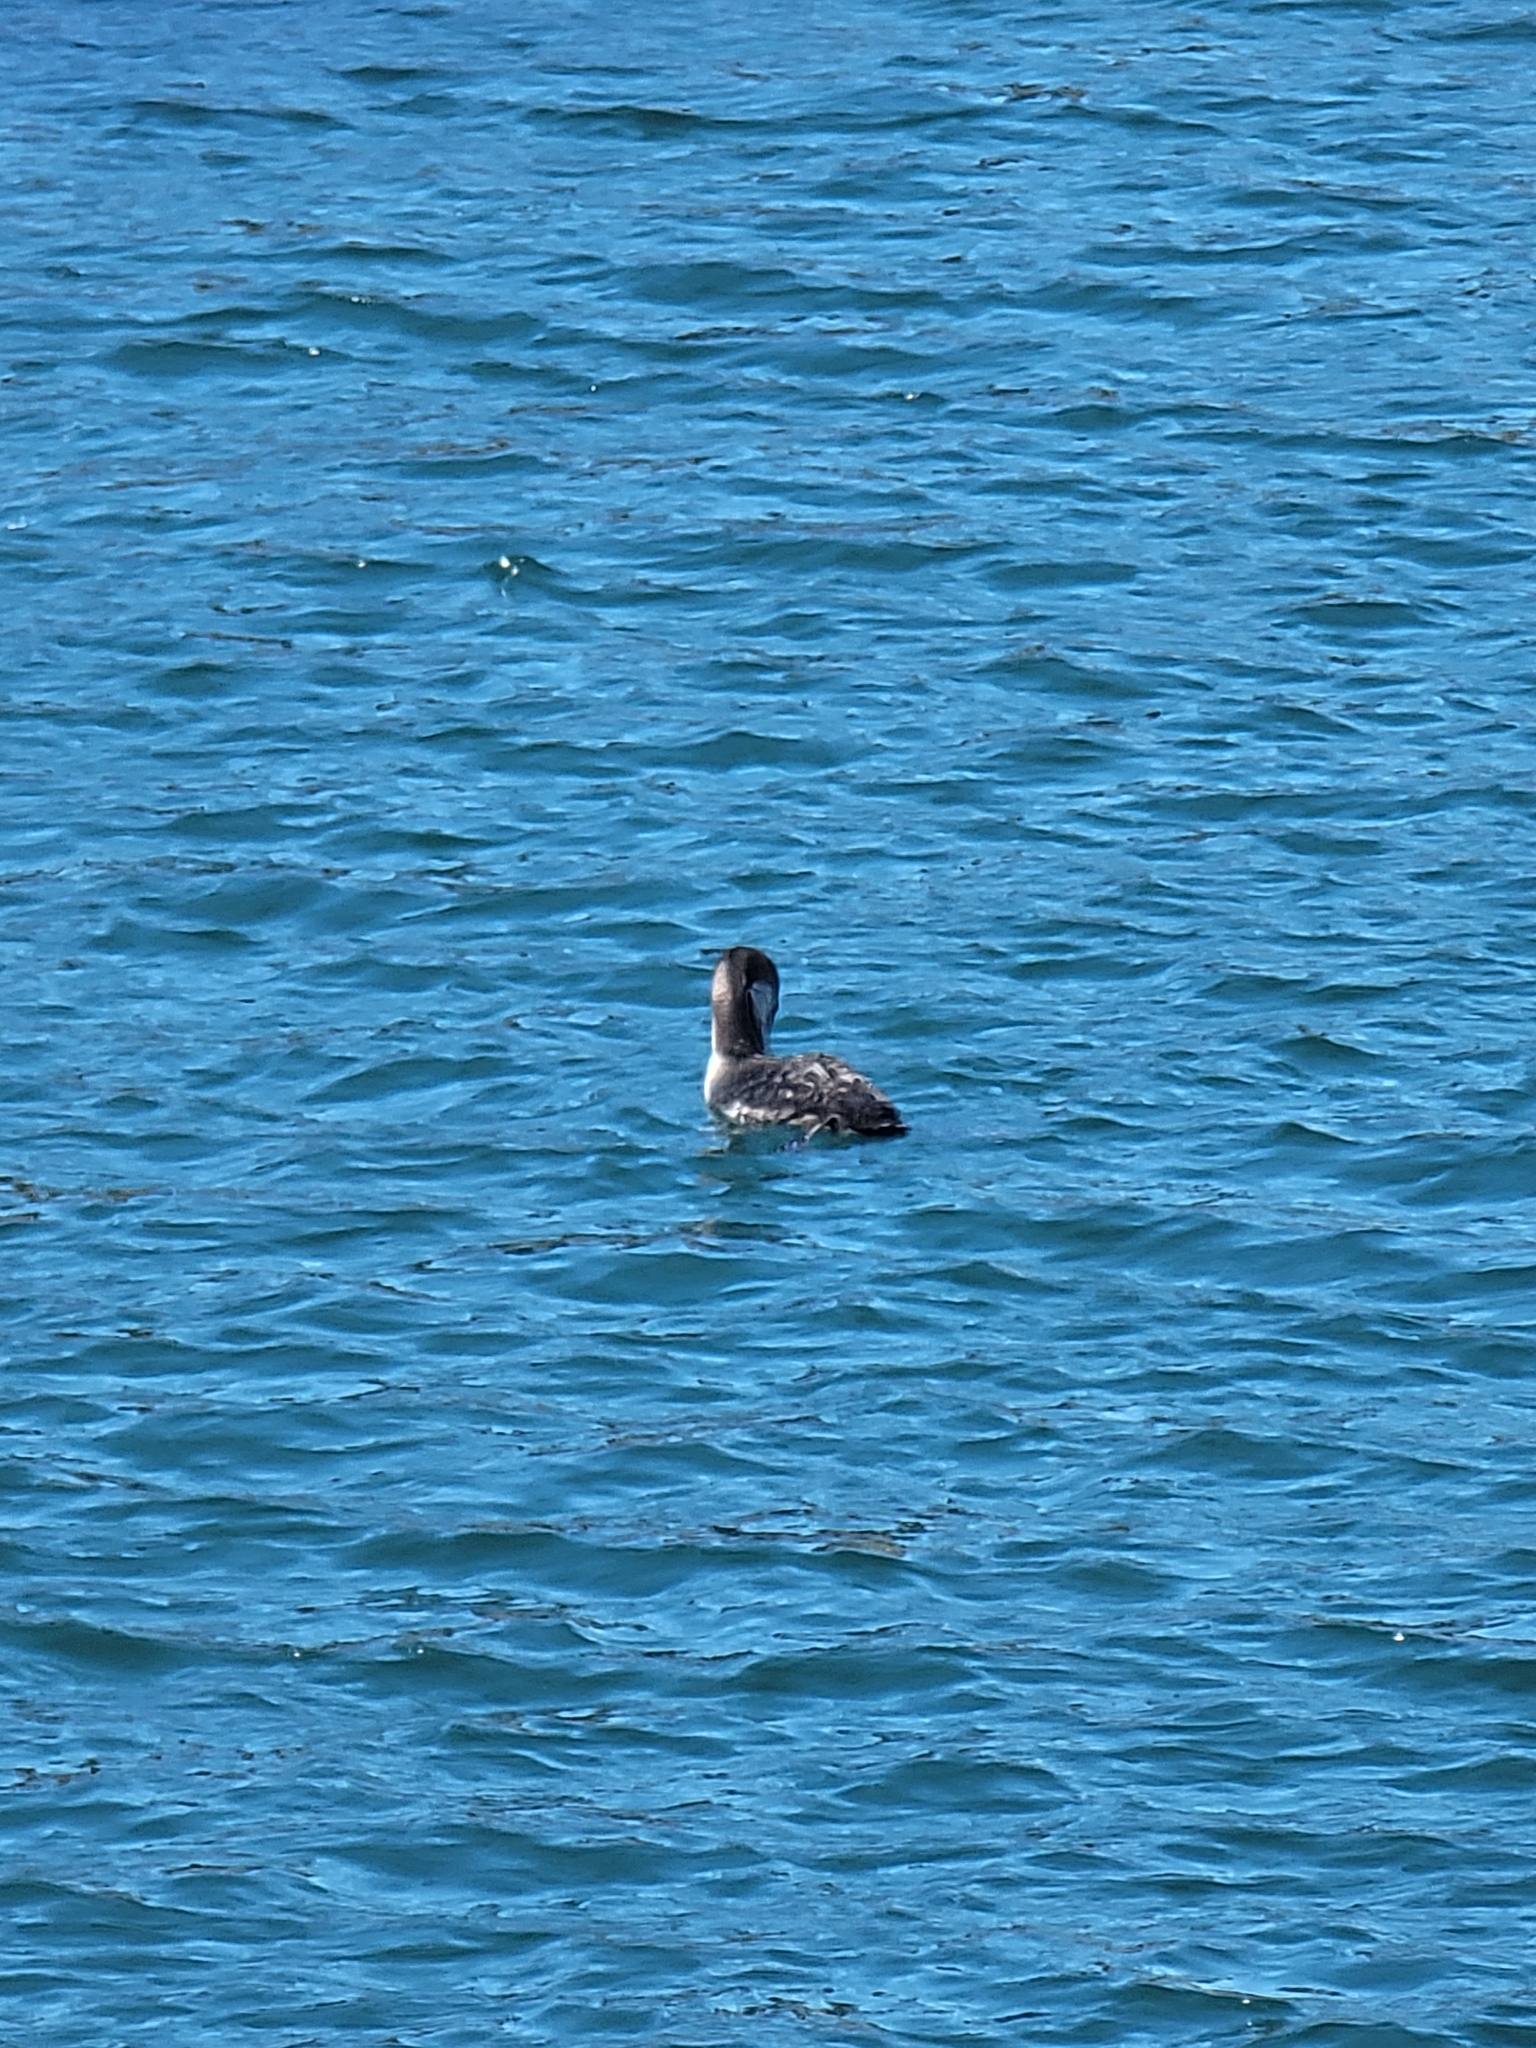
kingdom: Animalia
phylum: Chordata
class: Aves
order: Gaviiformes
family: Gaviidae
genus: Gavia
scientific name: Gavia immer
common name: Common loon
